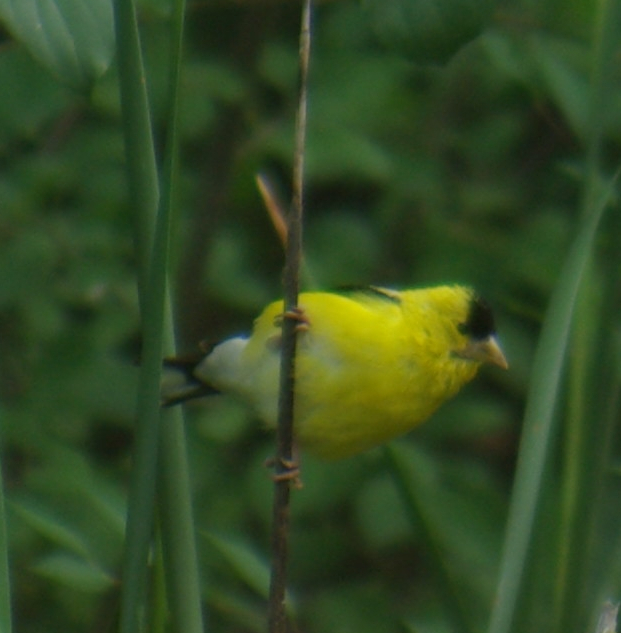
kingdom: Animalia
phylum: Chordata
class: Aves
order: Passeriformes
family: Fringillidae
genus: Spinus
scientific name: Spinus tristis
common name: American goldfinch
